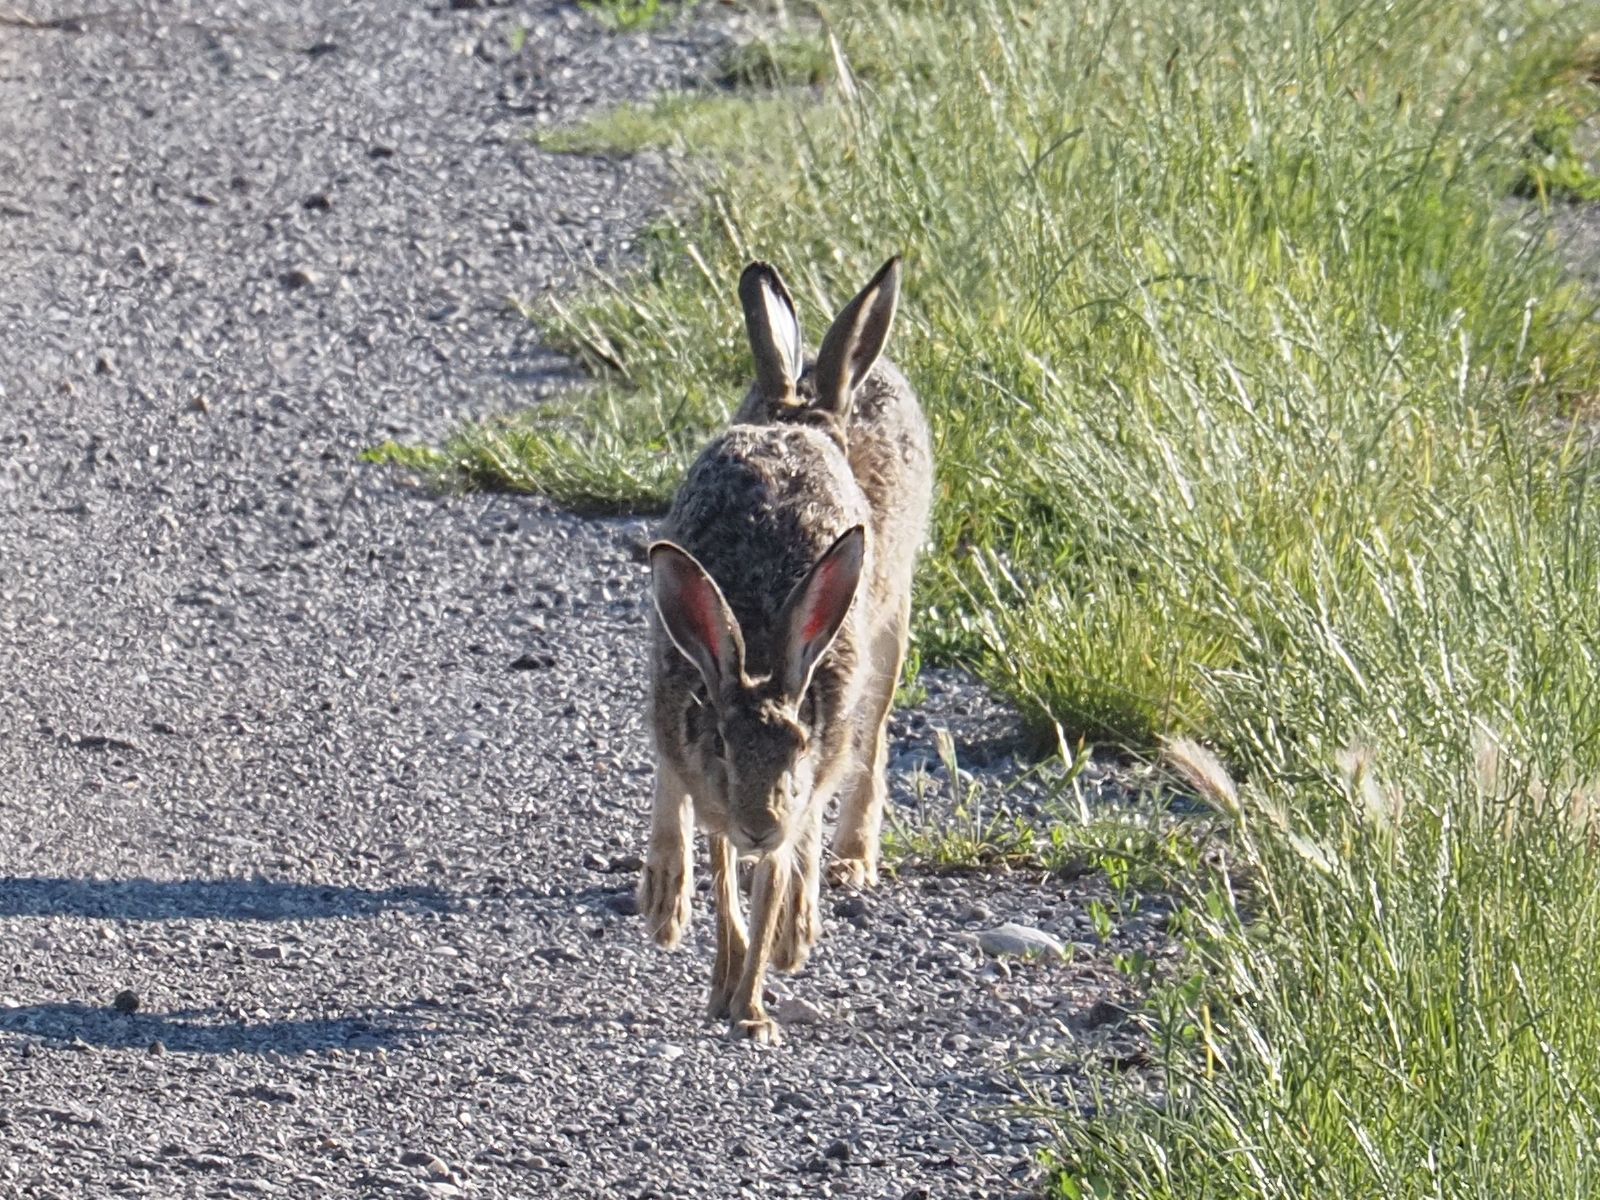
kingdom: Animalia
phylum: Chordata
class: Mammalia
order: Lagomorpha
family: Leporidae
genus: Lepus
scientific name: Lepus europaeus
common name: European hare
